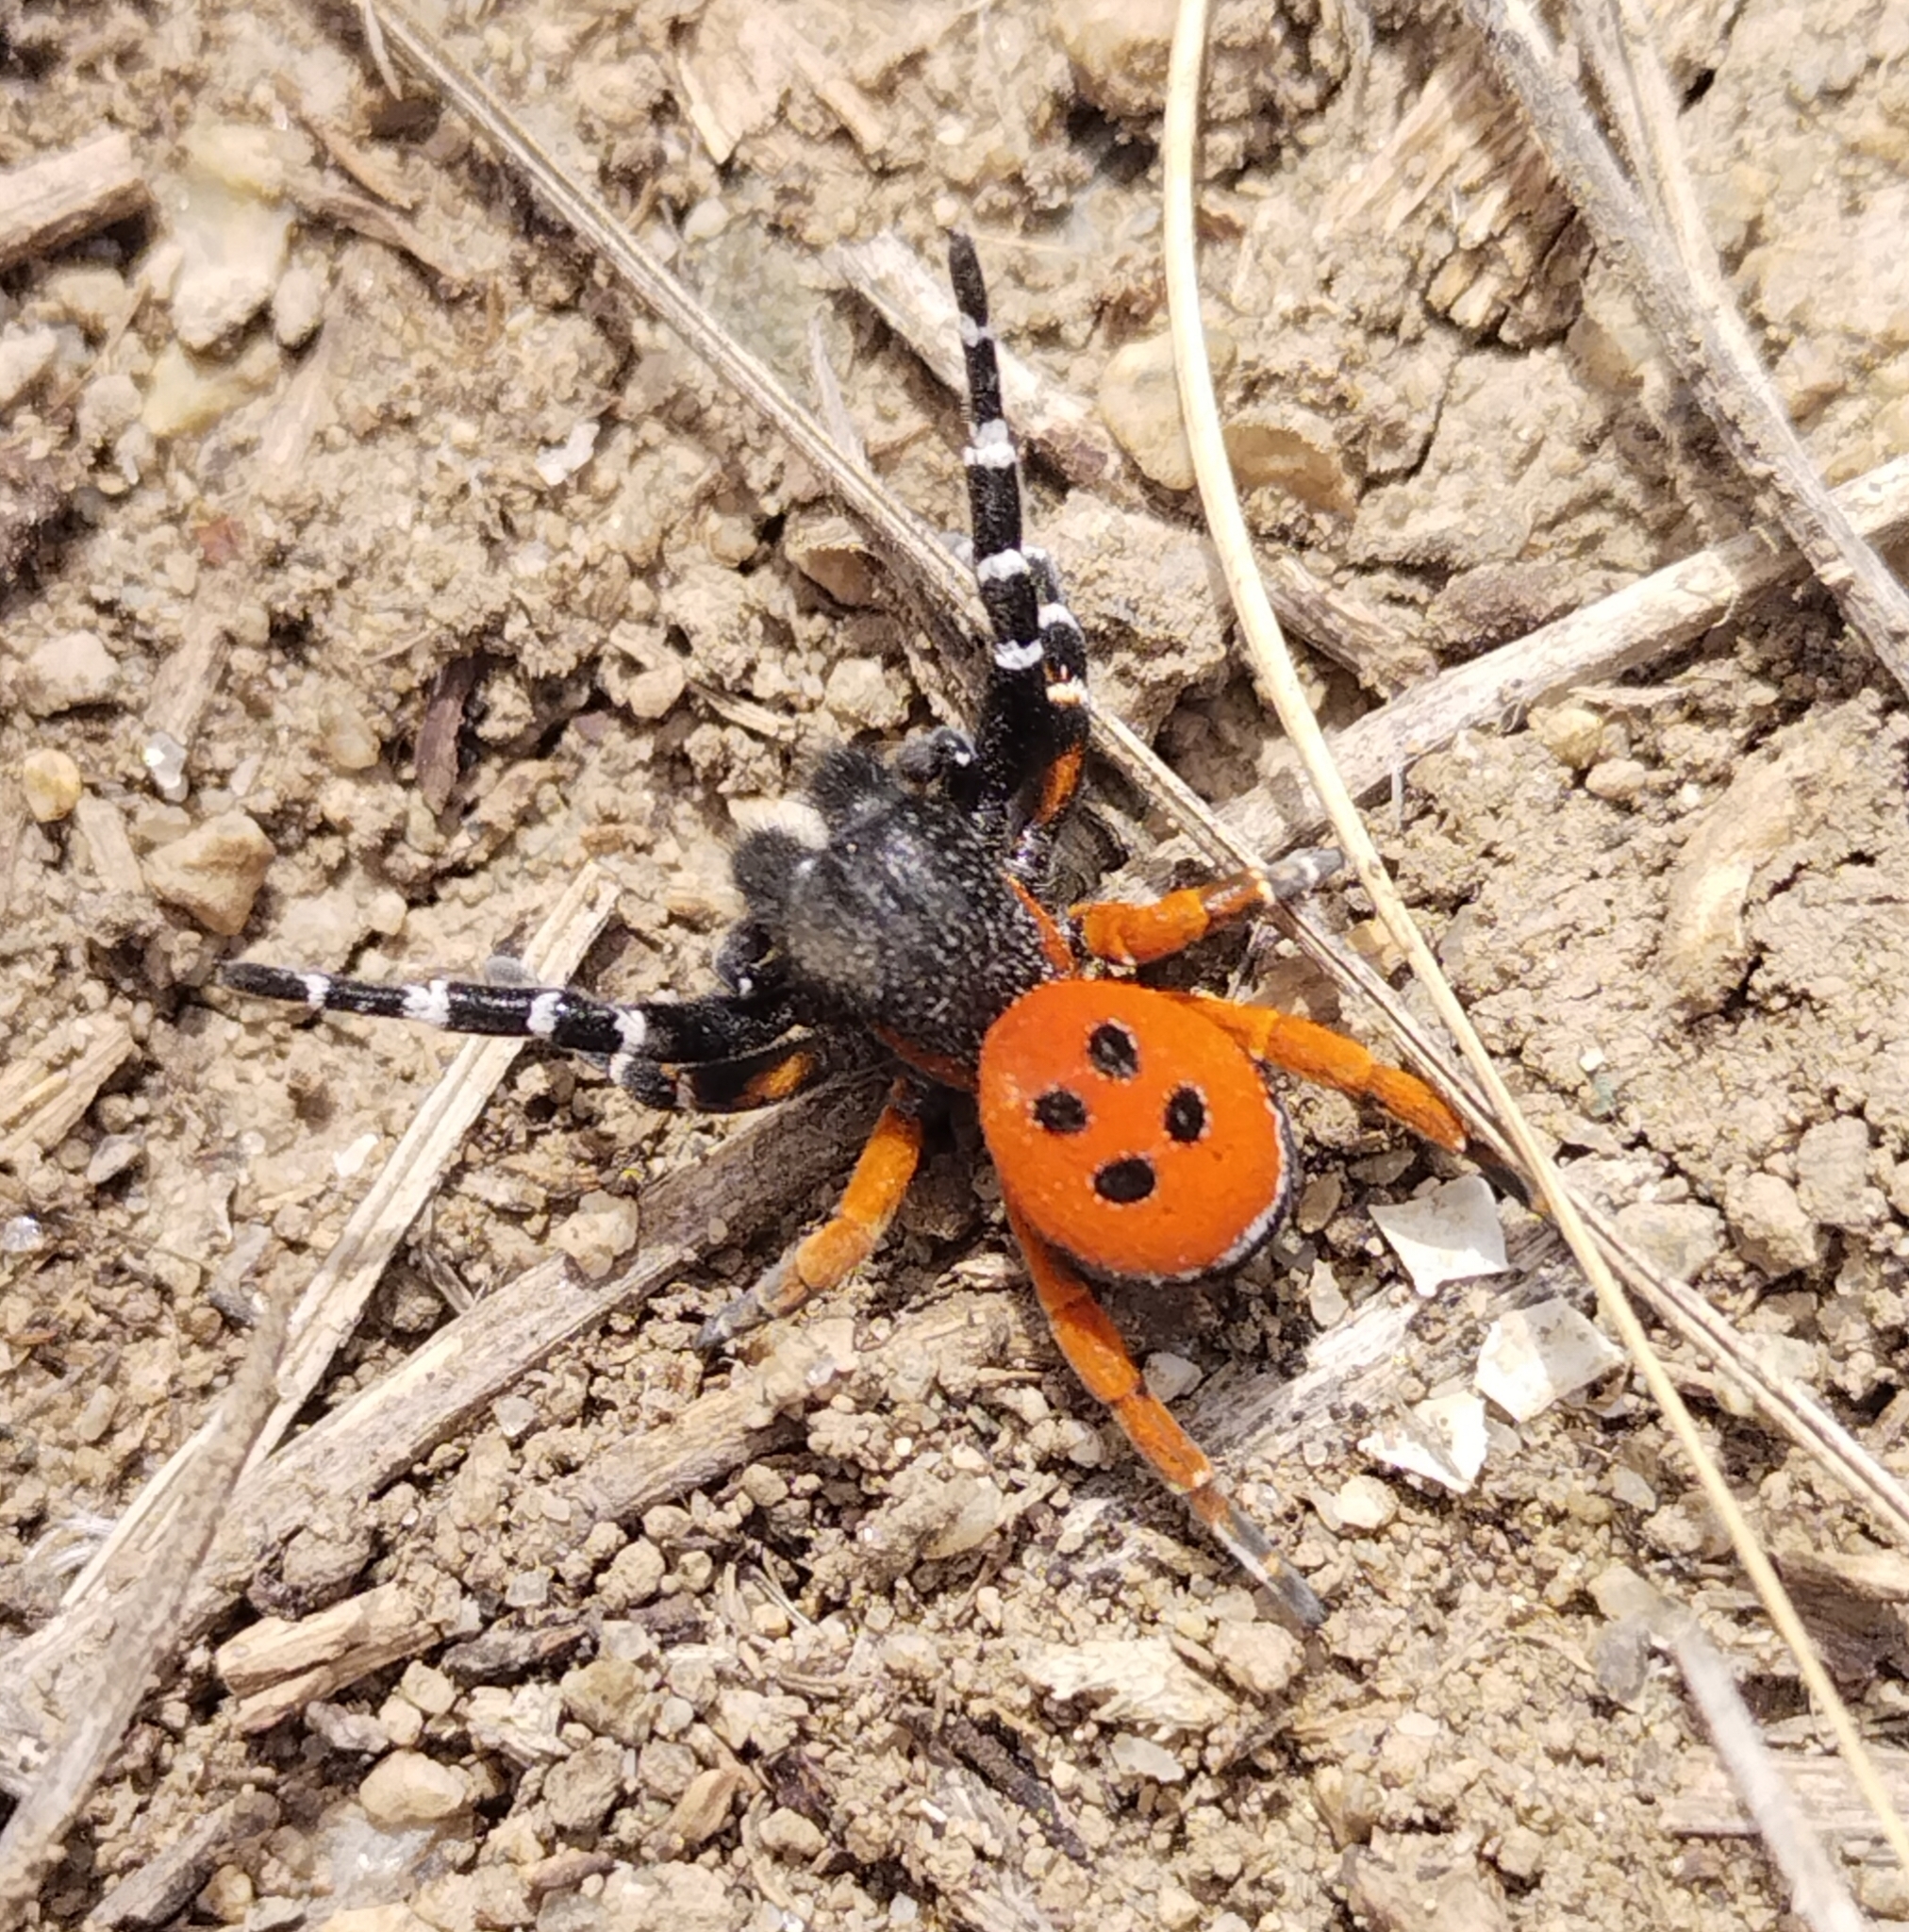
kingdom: Animalia
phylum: Arthropoda
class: Arachnida
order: Araneae
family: Eresidae
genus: Eresus
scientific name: Eresus kollari
